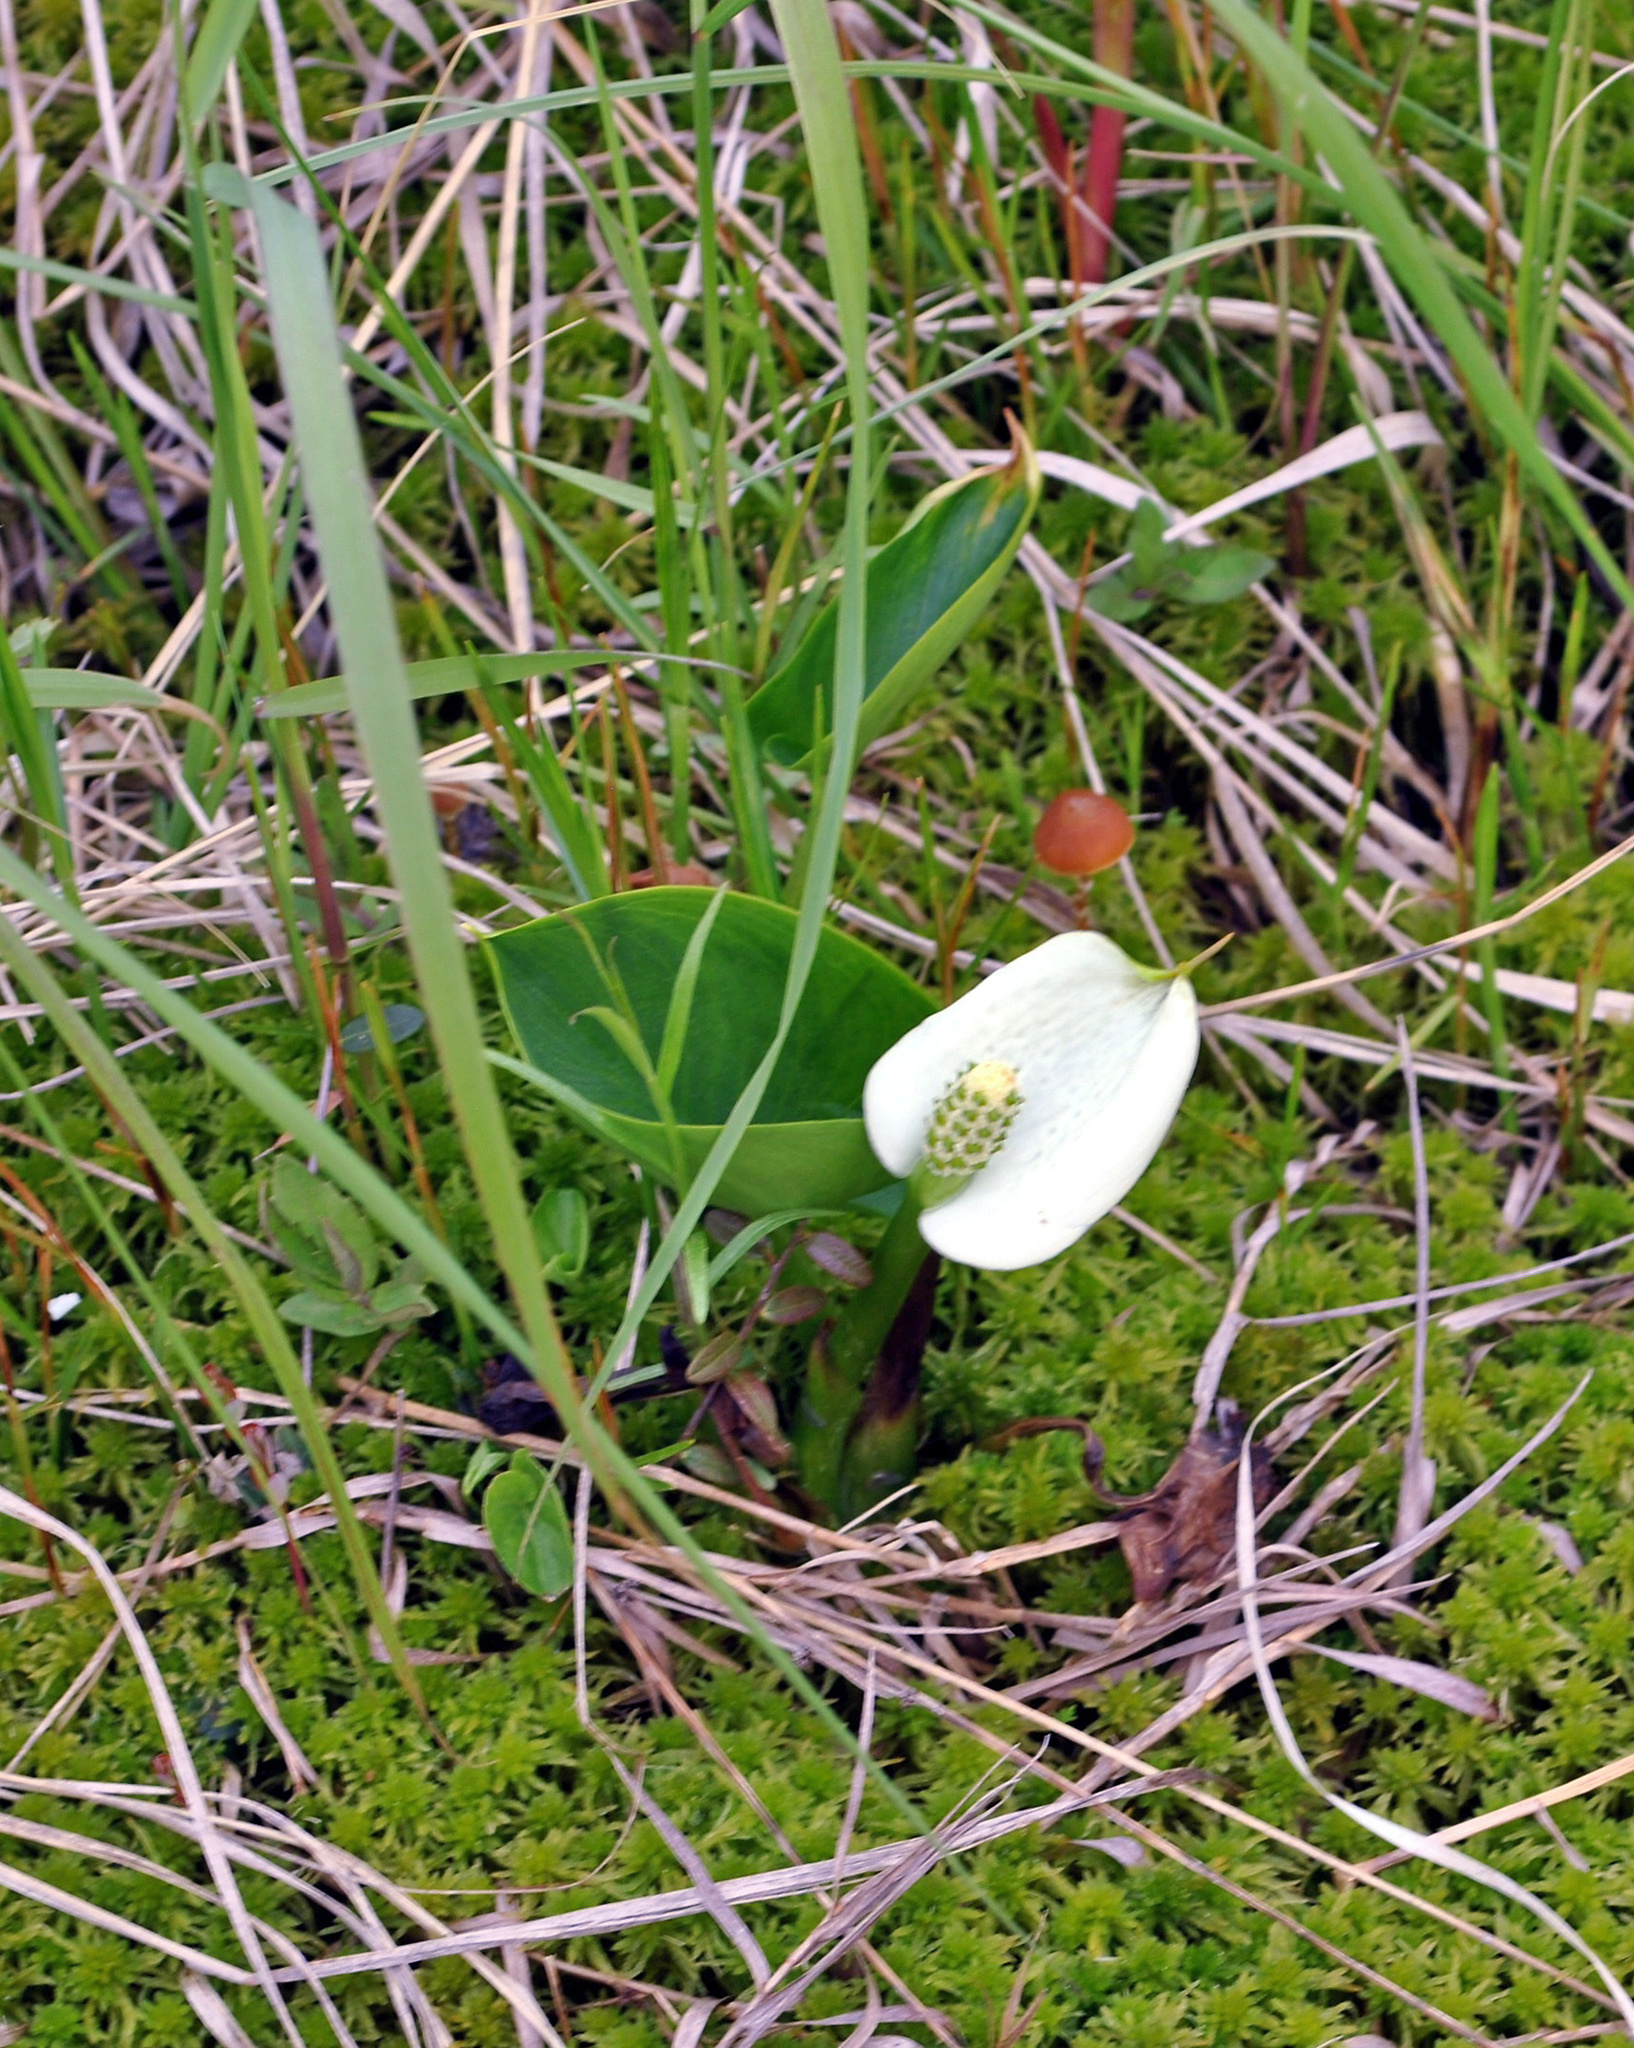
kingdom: Plantae
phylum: Tracheophyta
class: Liliopsida
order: Alismatales
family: Araceae
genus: Calla
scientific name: Calla palustris
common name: Bog arum
